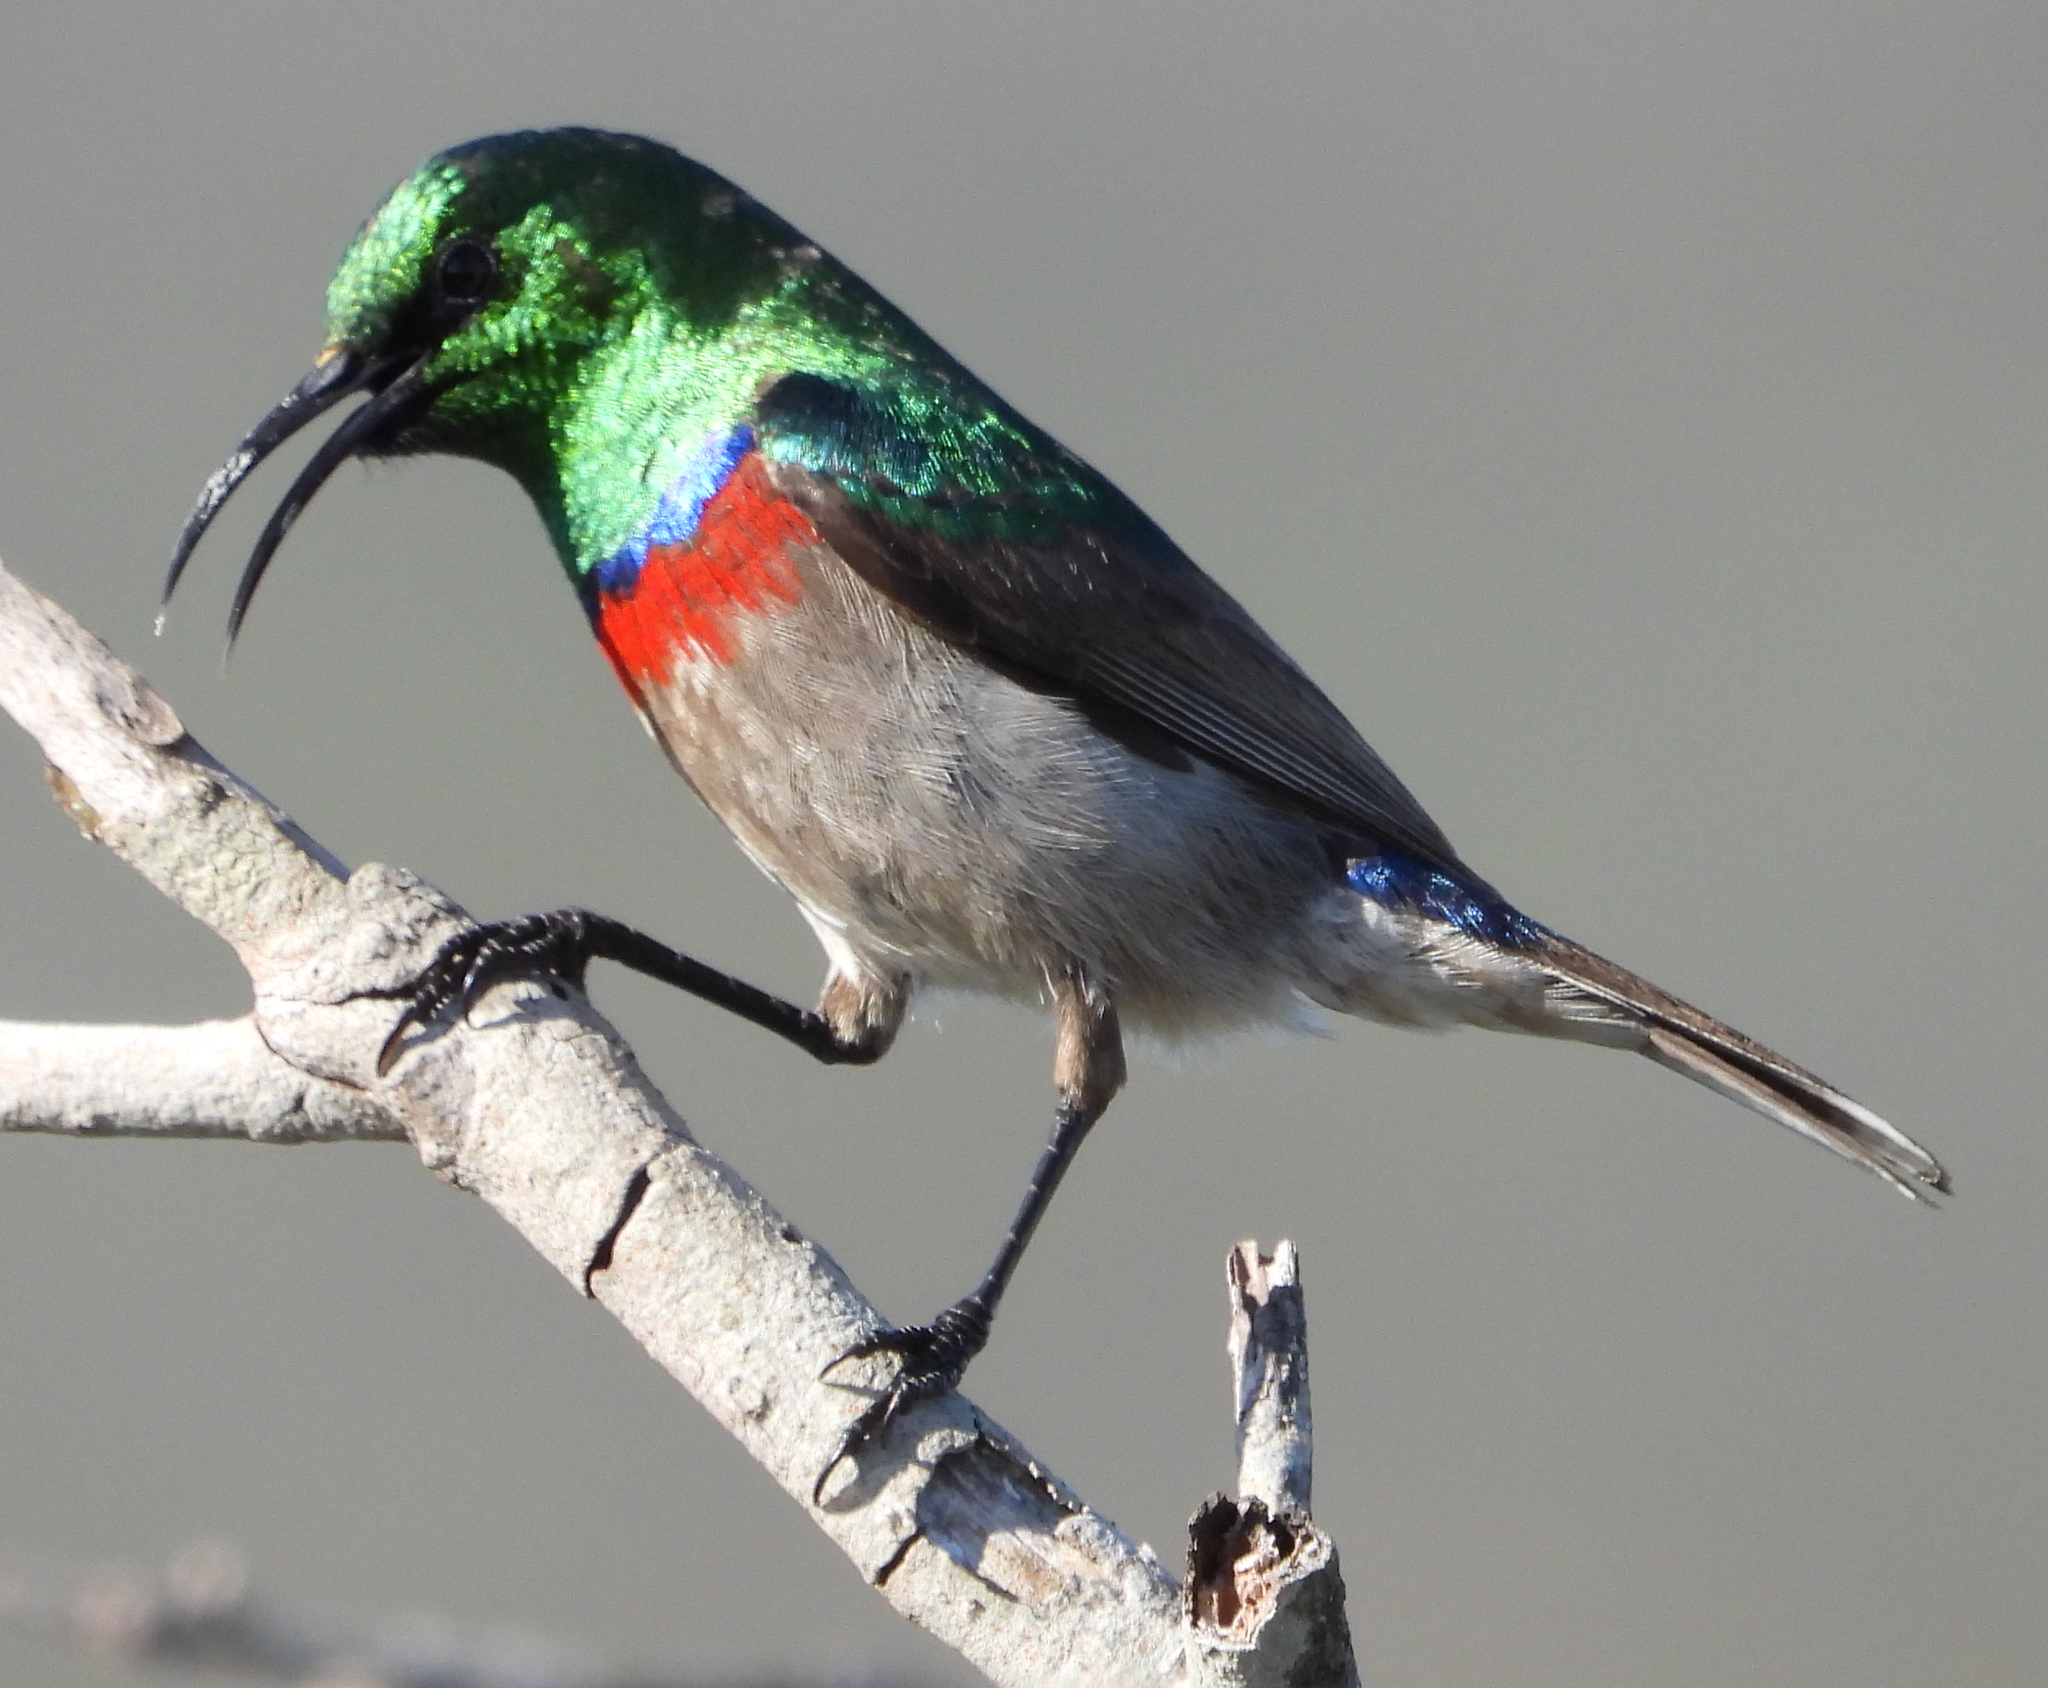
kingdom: Animalia
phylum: Chordata
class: Aves
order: Passeriformes
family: Nectariniidae
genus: Cinnyris
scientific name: Cinnyris chalybeus
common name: Southern double-collared sunbird
